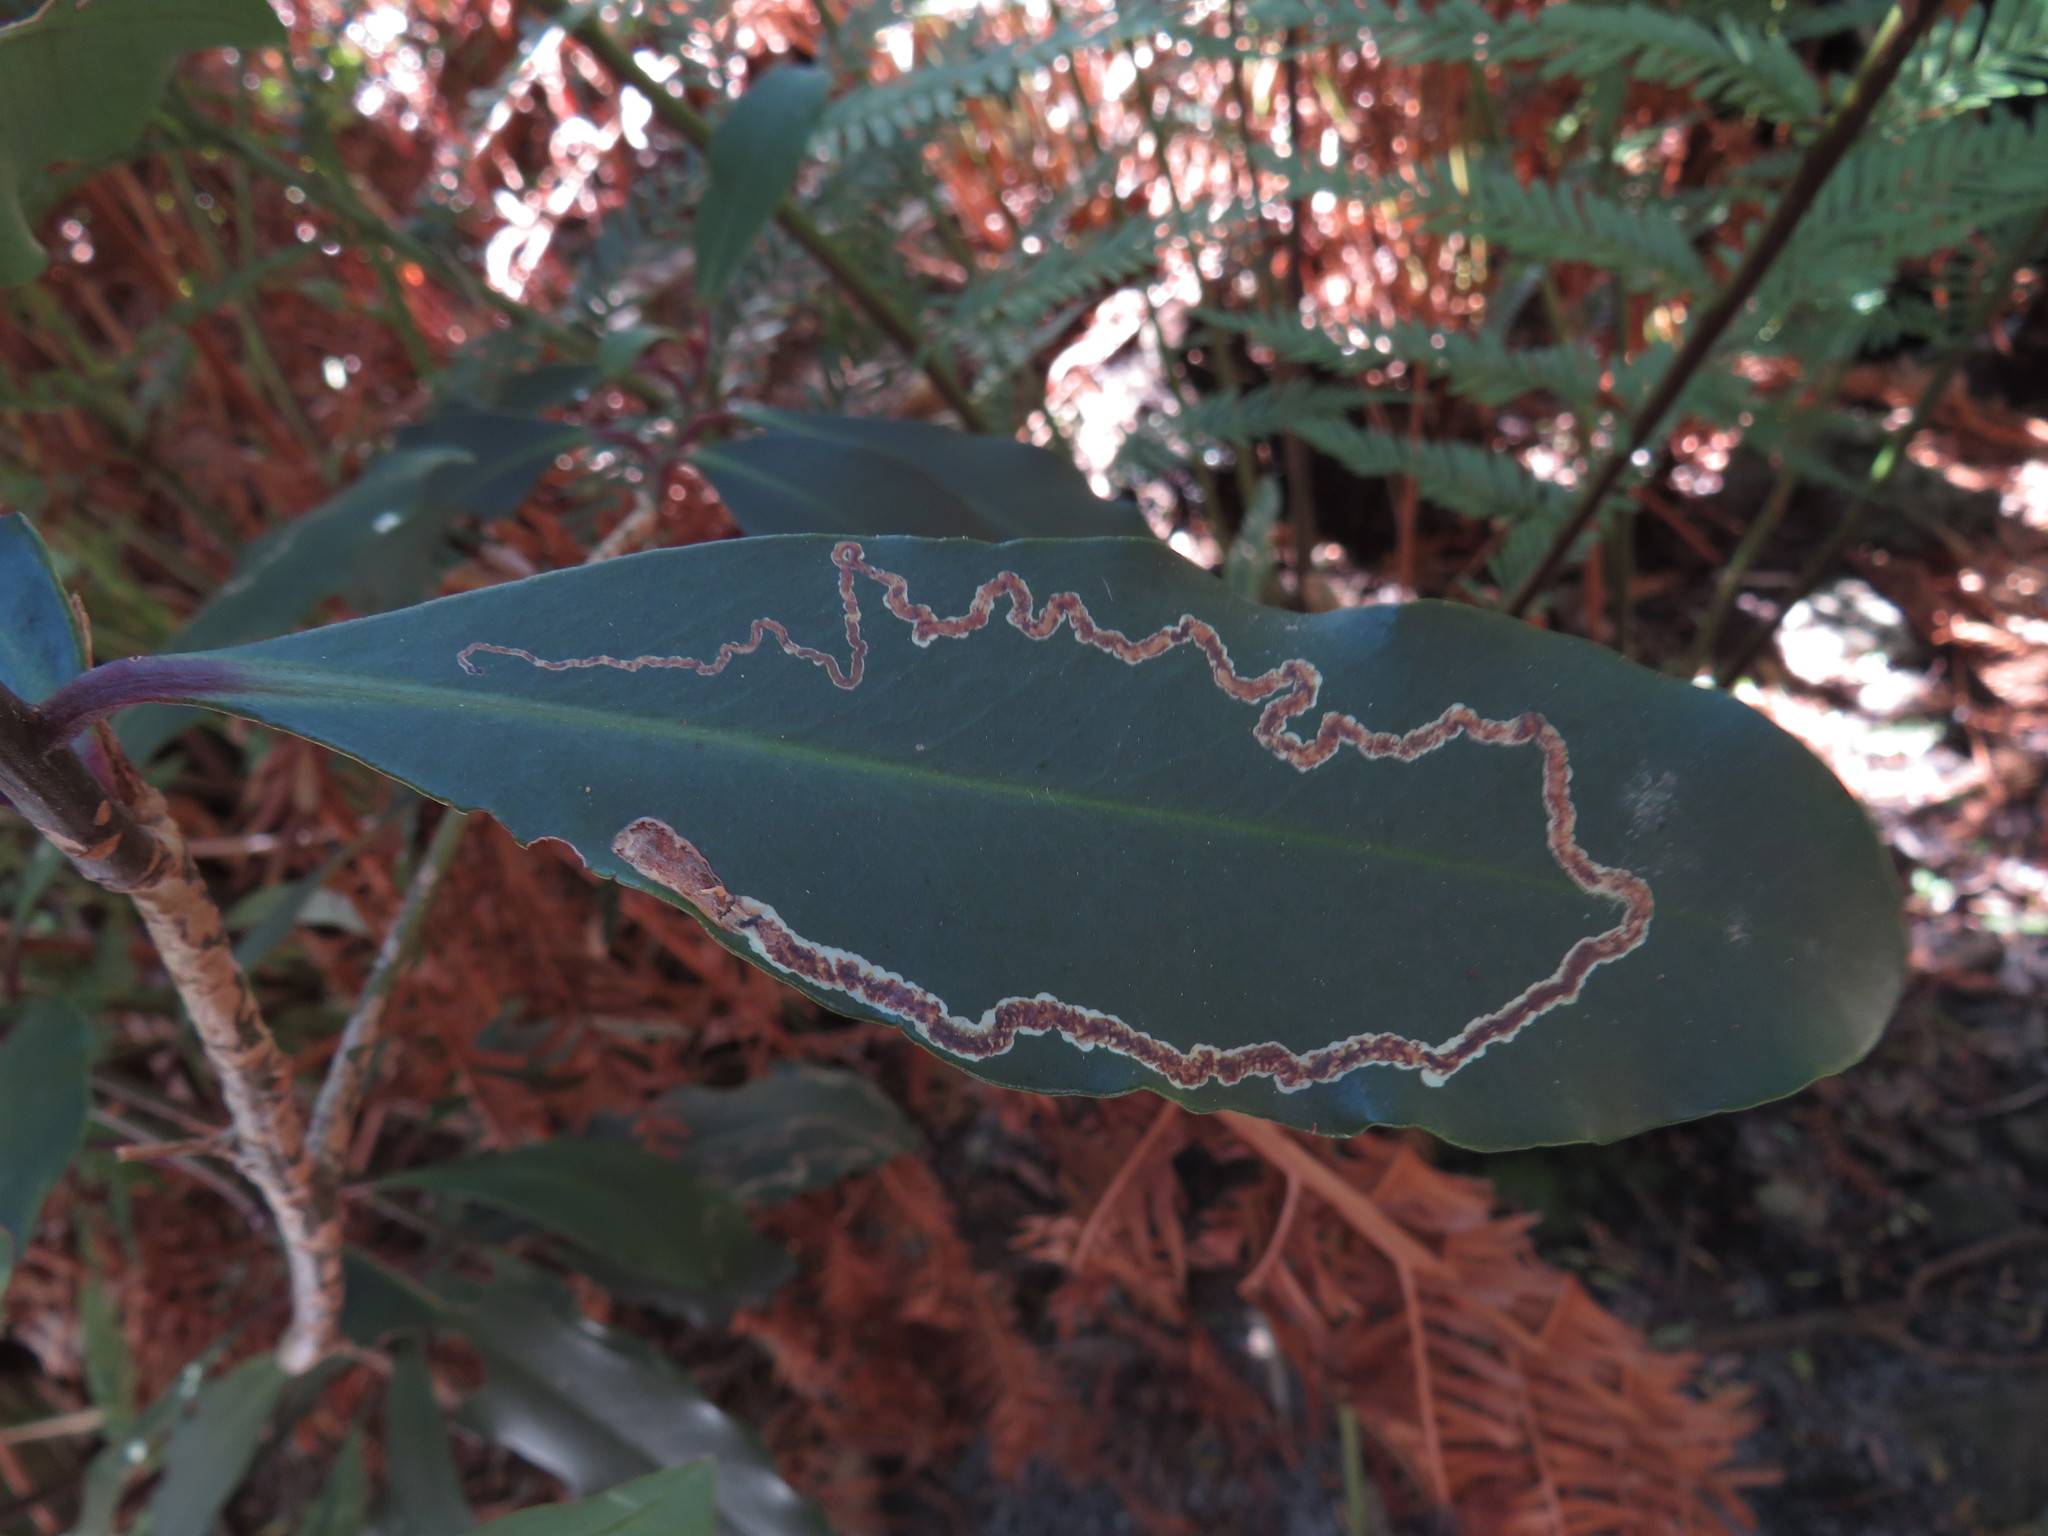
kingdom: Plantae
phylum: Tracheophyta
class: Magnoliopsida
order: Ericales
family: Primulaceae
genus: Myrsine
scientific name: Myrsine melanophloeos
